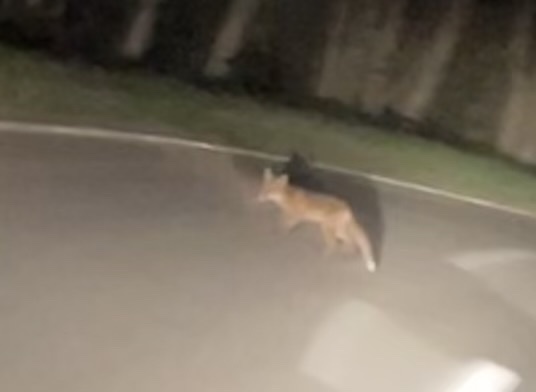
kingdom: Animalia
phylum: Chordata
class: Mammalia
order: Carnivora
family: Canidae
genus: Vulpes
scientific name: Vulpes vulpes
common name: Red fox
